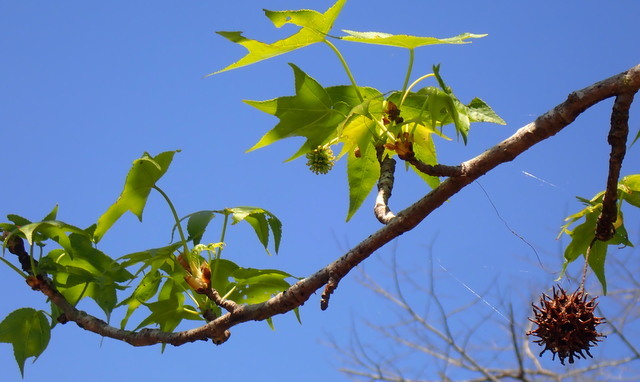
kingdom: Plantae
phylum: Tracheophyta
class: Magnoliopsida
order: Saxifragales
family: Altingiaceae
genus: Liquidambar
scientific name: Liquidambar styraciflua
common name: Sweet gum
